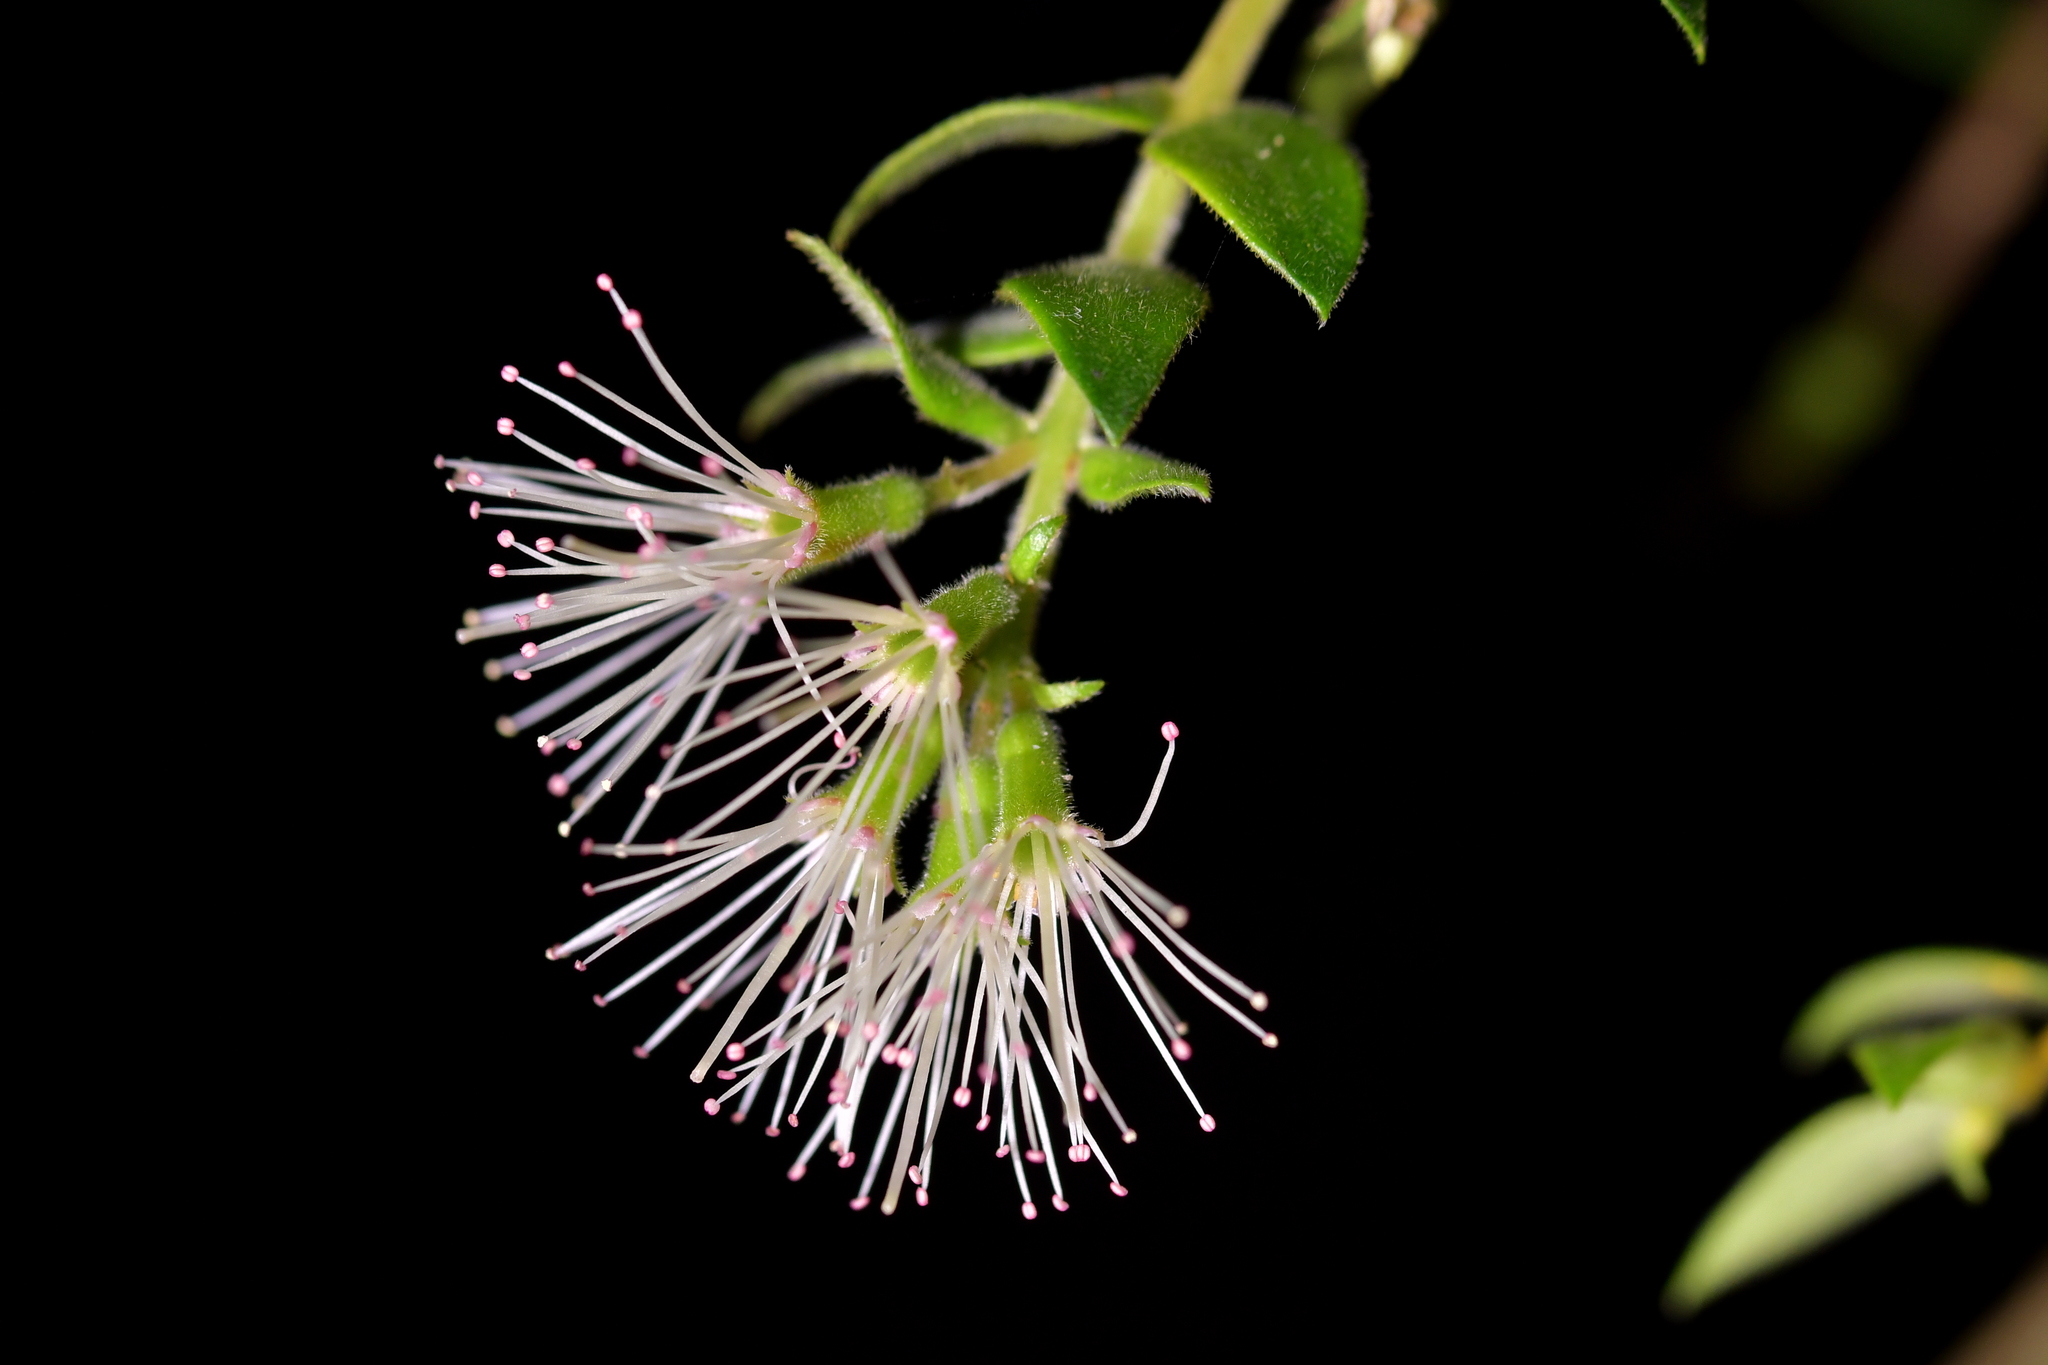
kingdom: Plantae
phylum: Tracheophyta
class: Magnoliopsida
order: Myrtales
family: Myrtaceae
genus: Metrosideros
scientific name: Metrosideros colensoi
